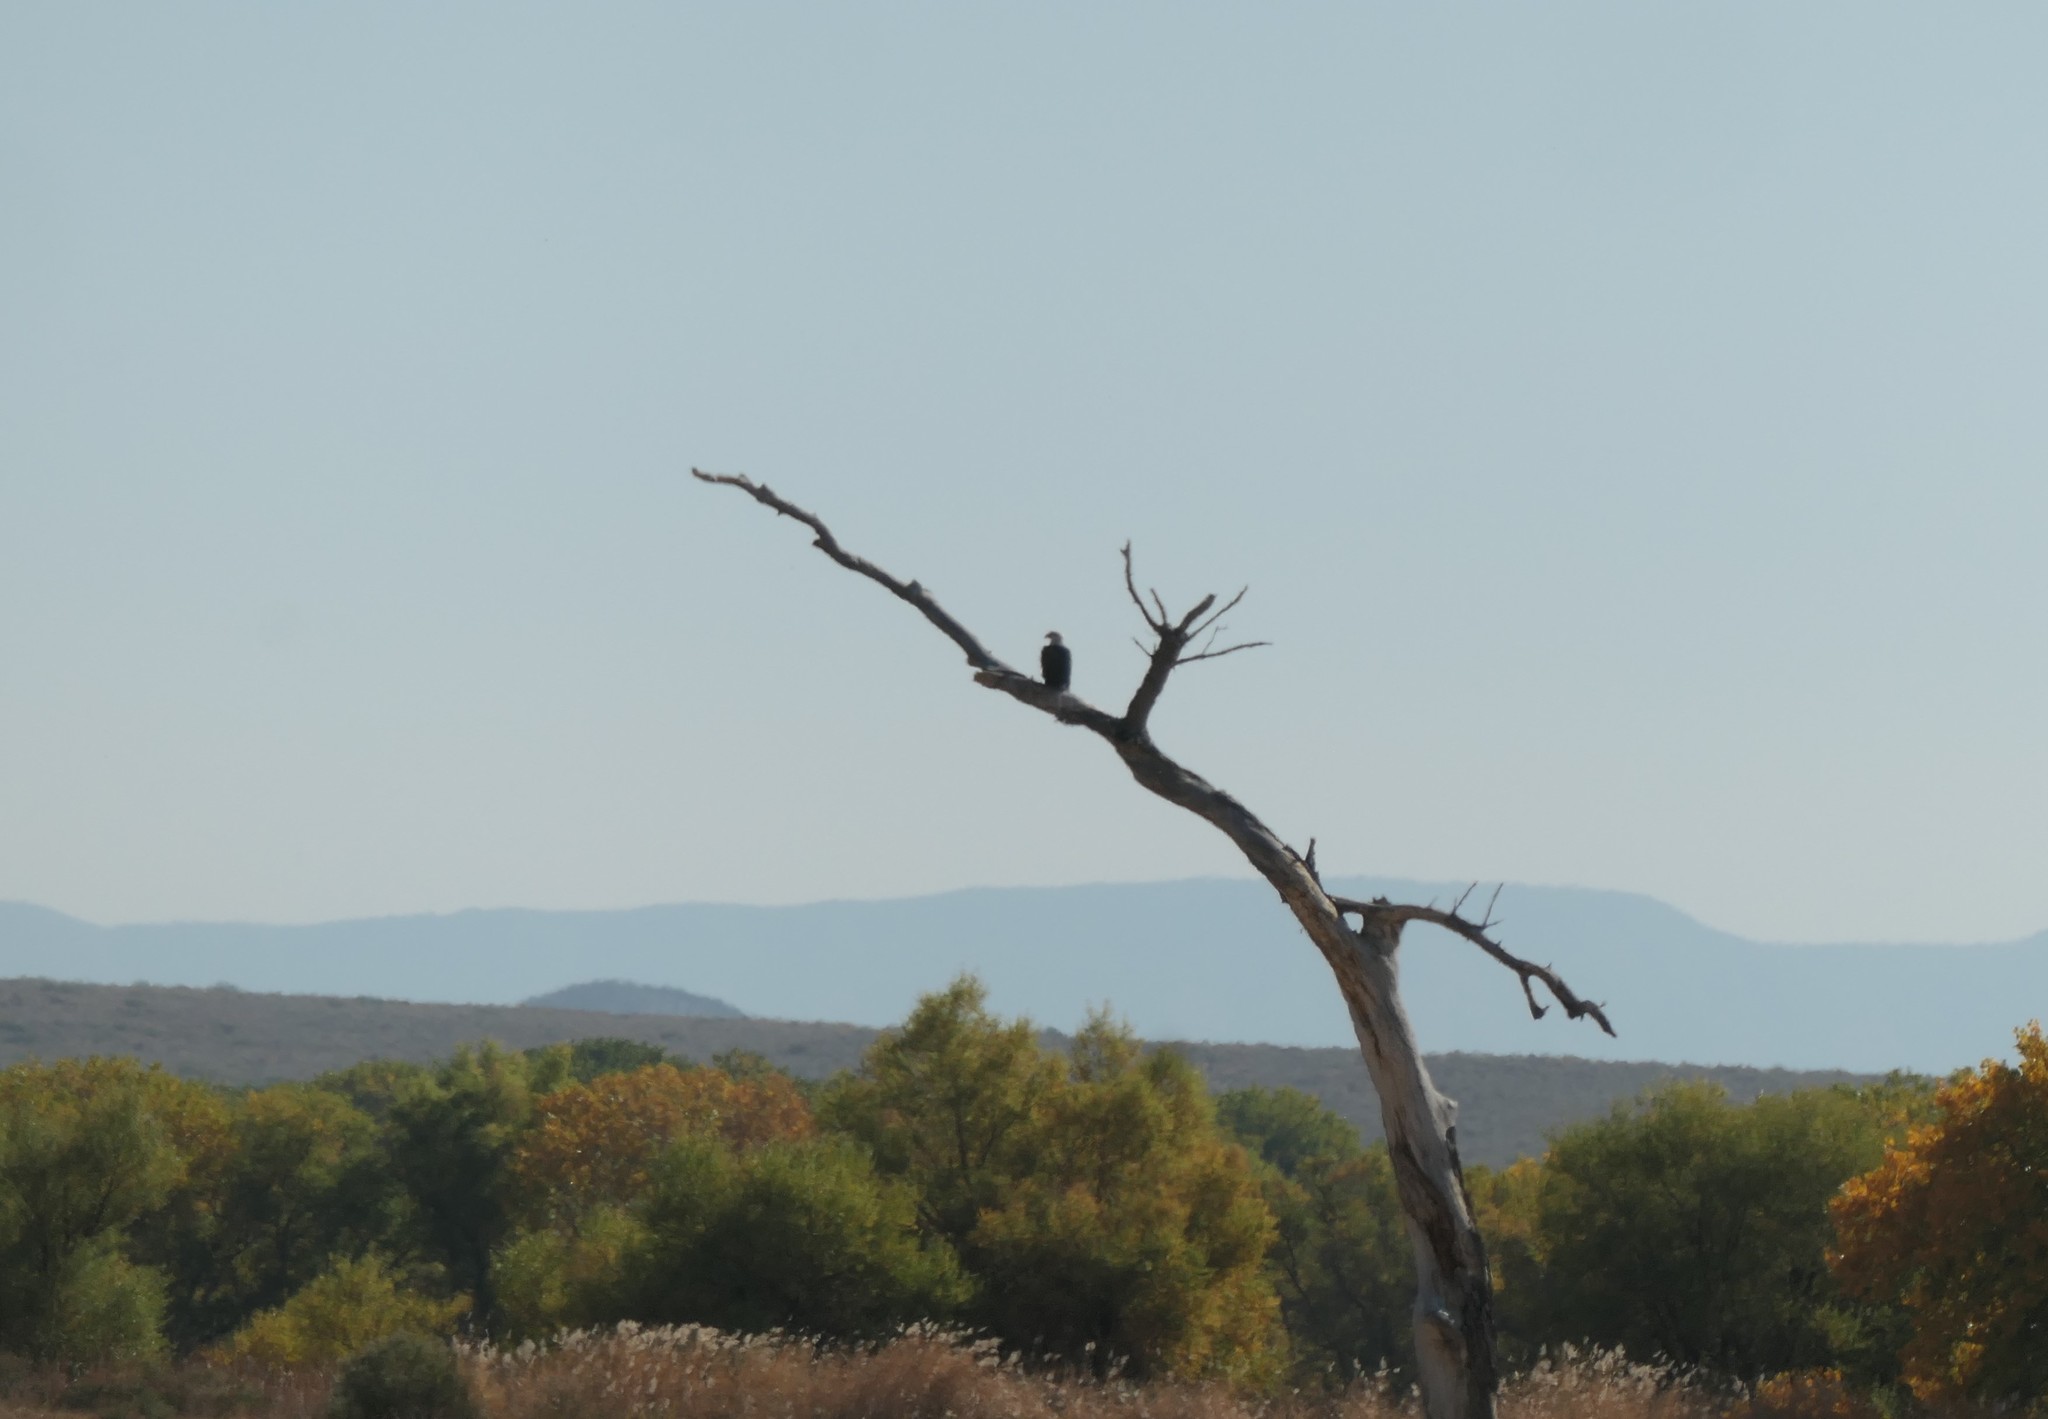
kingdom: Animalia
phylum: Chordata
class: Aves
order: Accipitriformes
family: Accipitridae
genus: Haliaeetus
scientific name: Haliaeetus leucocephalus
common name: Bald eagle
